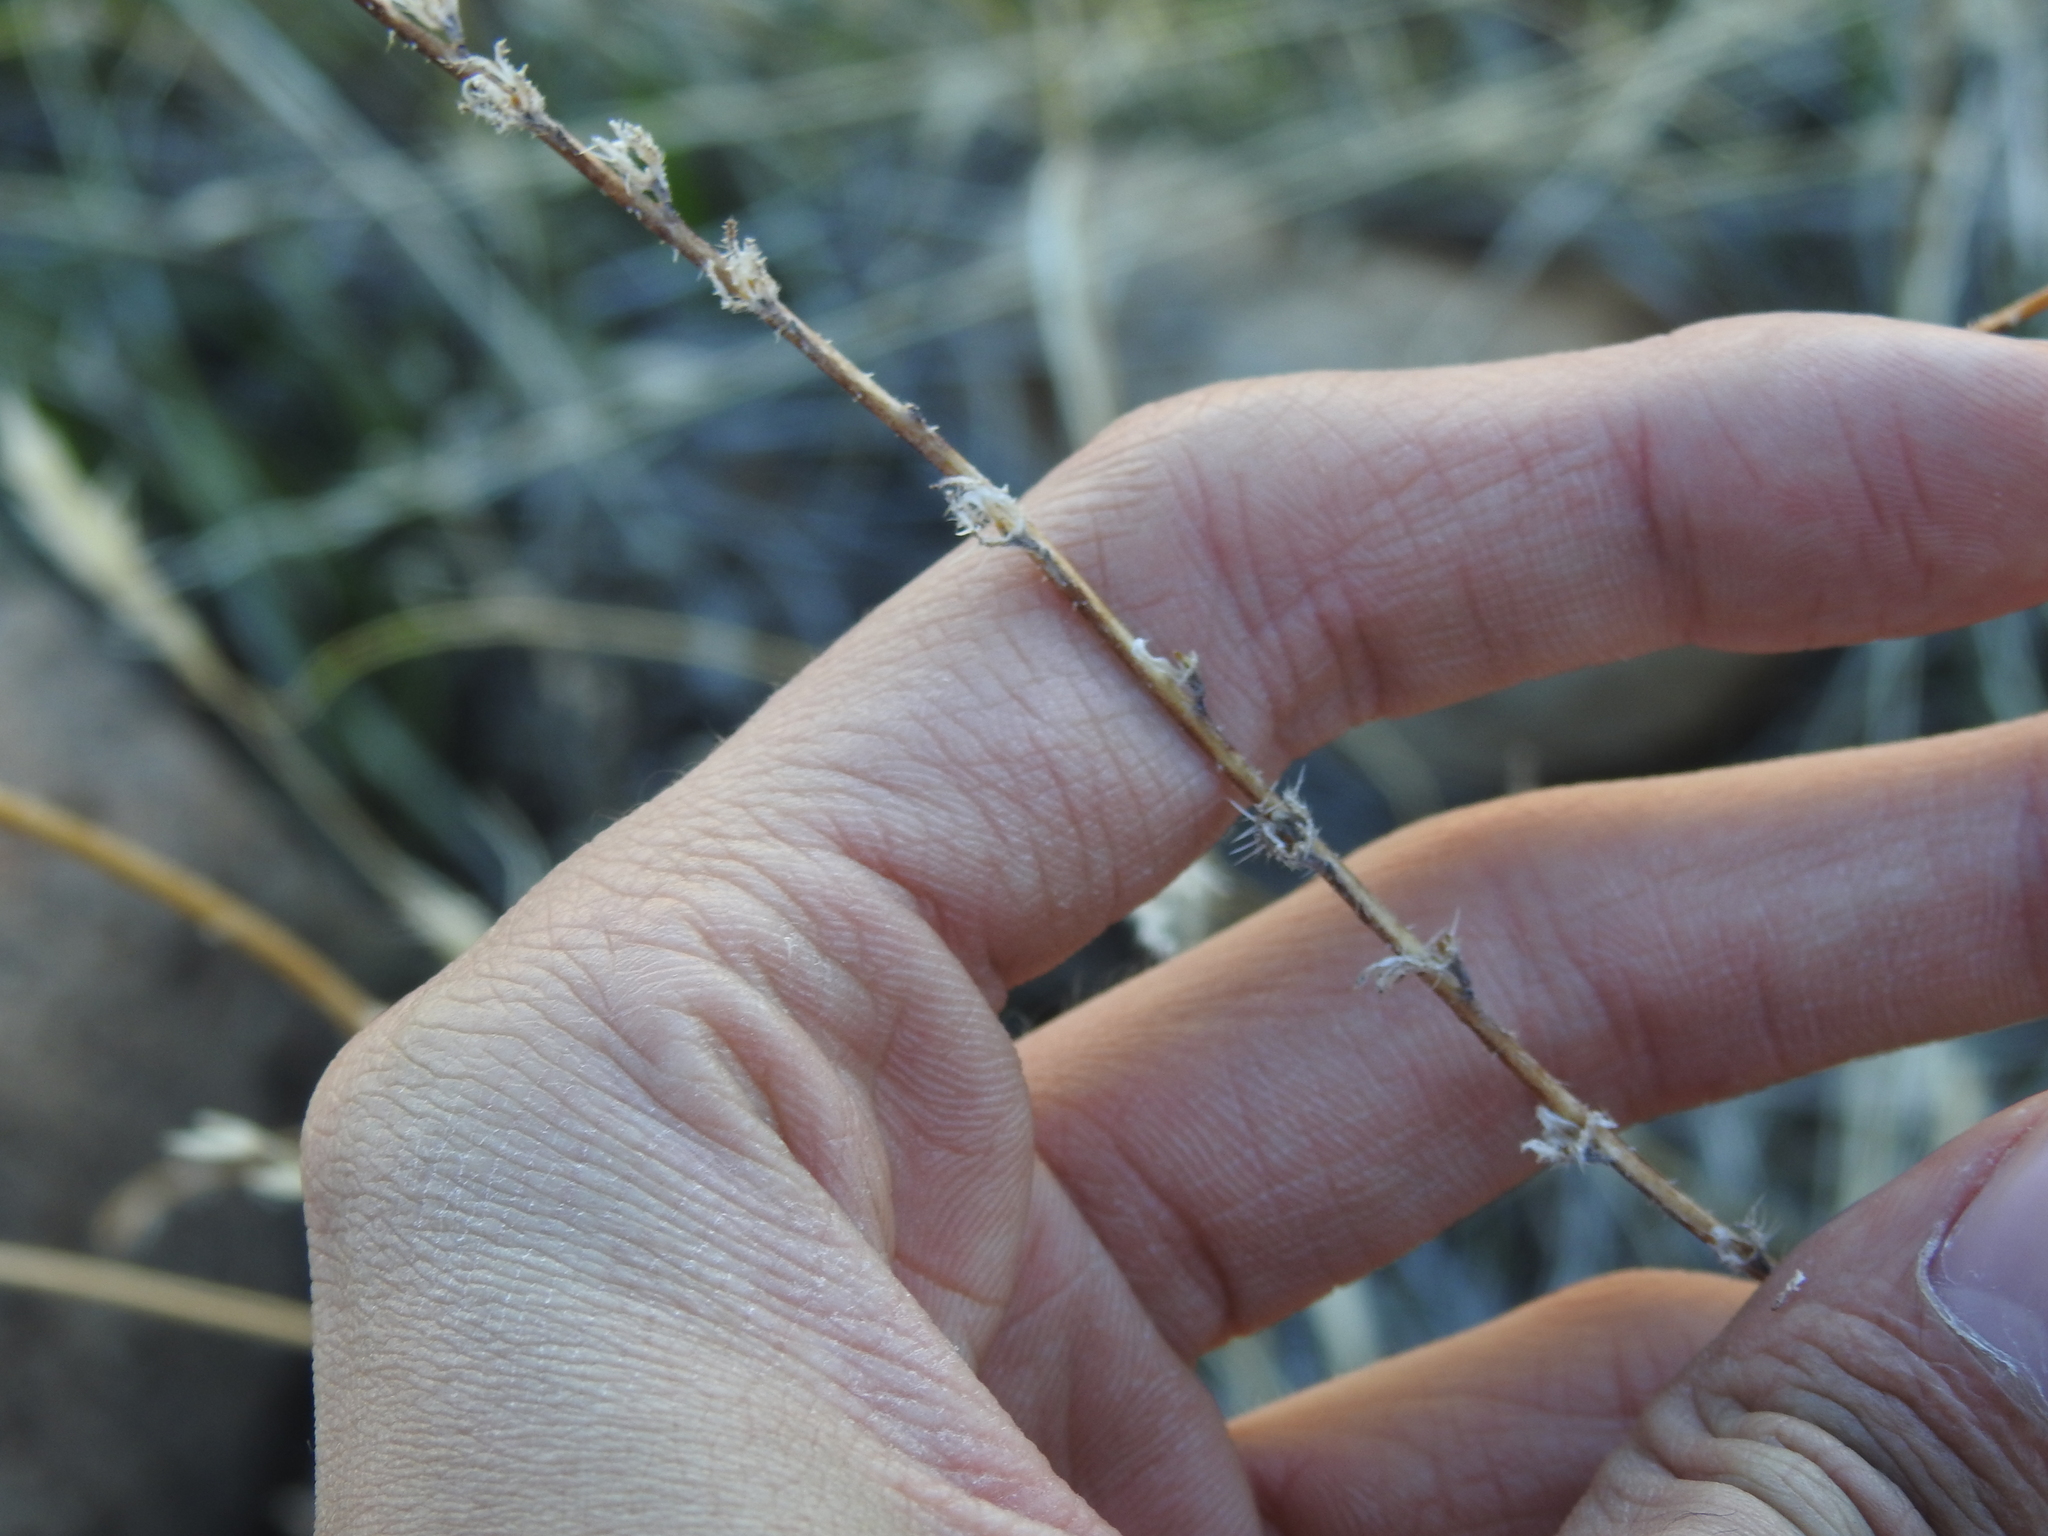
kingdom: Plantae
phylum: Tracheophyta
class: Magnoliopsida
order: Boraginales
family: Boraginaceae
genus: Plagiobothrys
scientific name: Plagiobothrys arizonicus
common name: Arizona popcorn-flower
